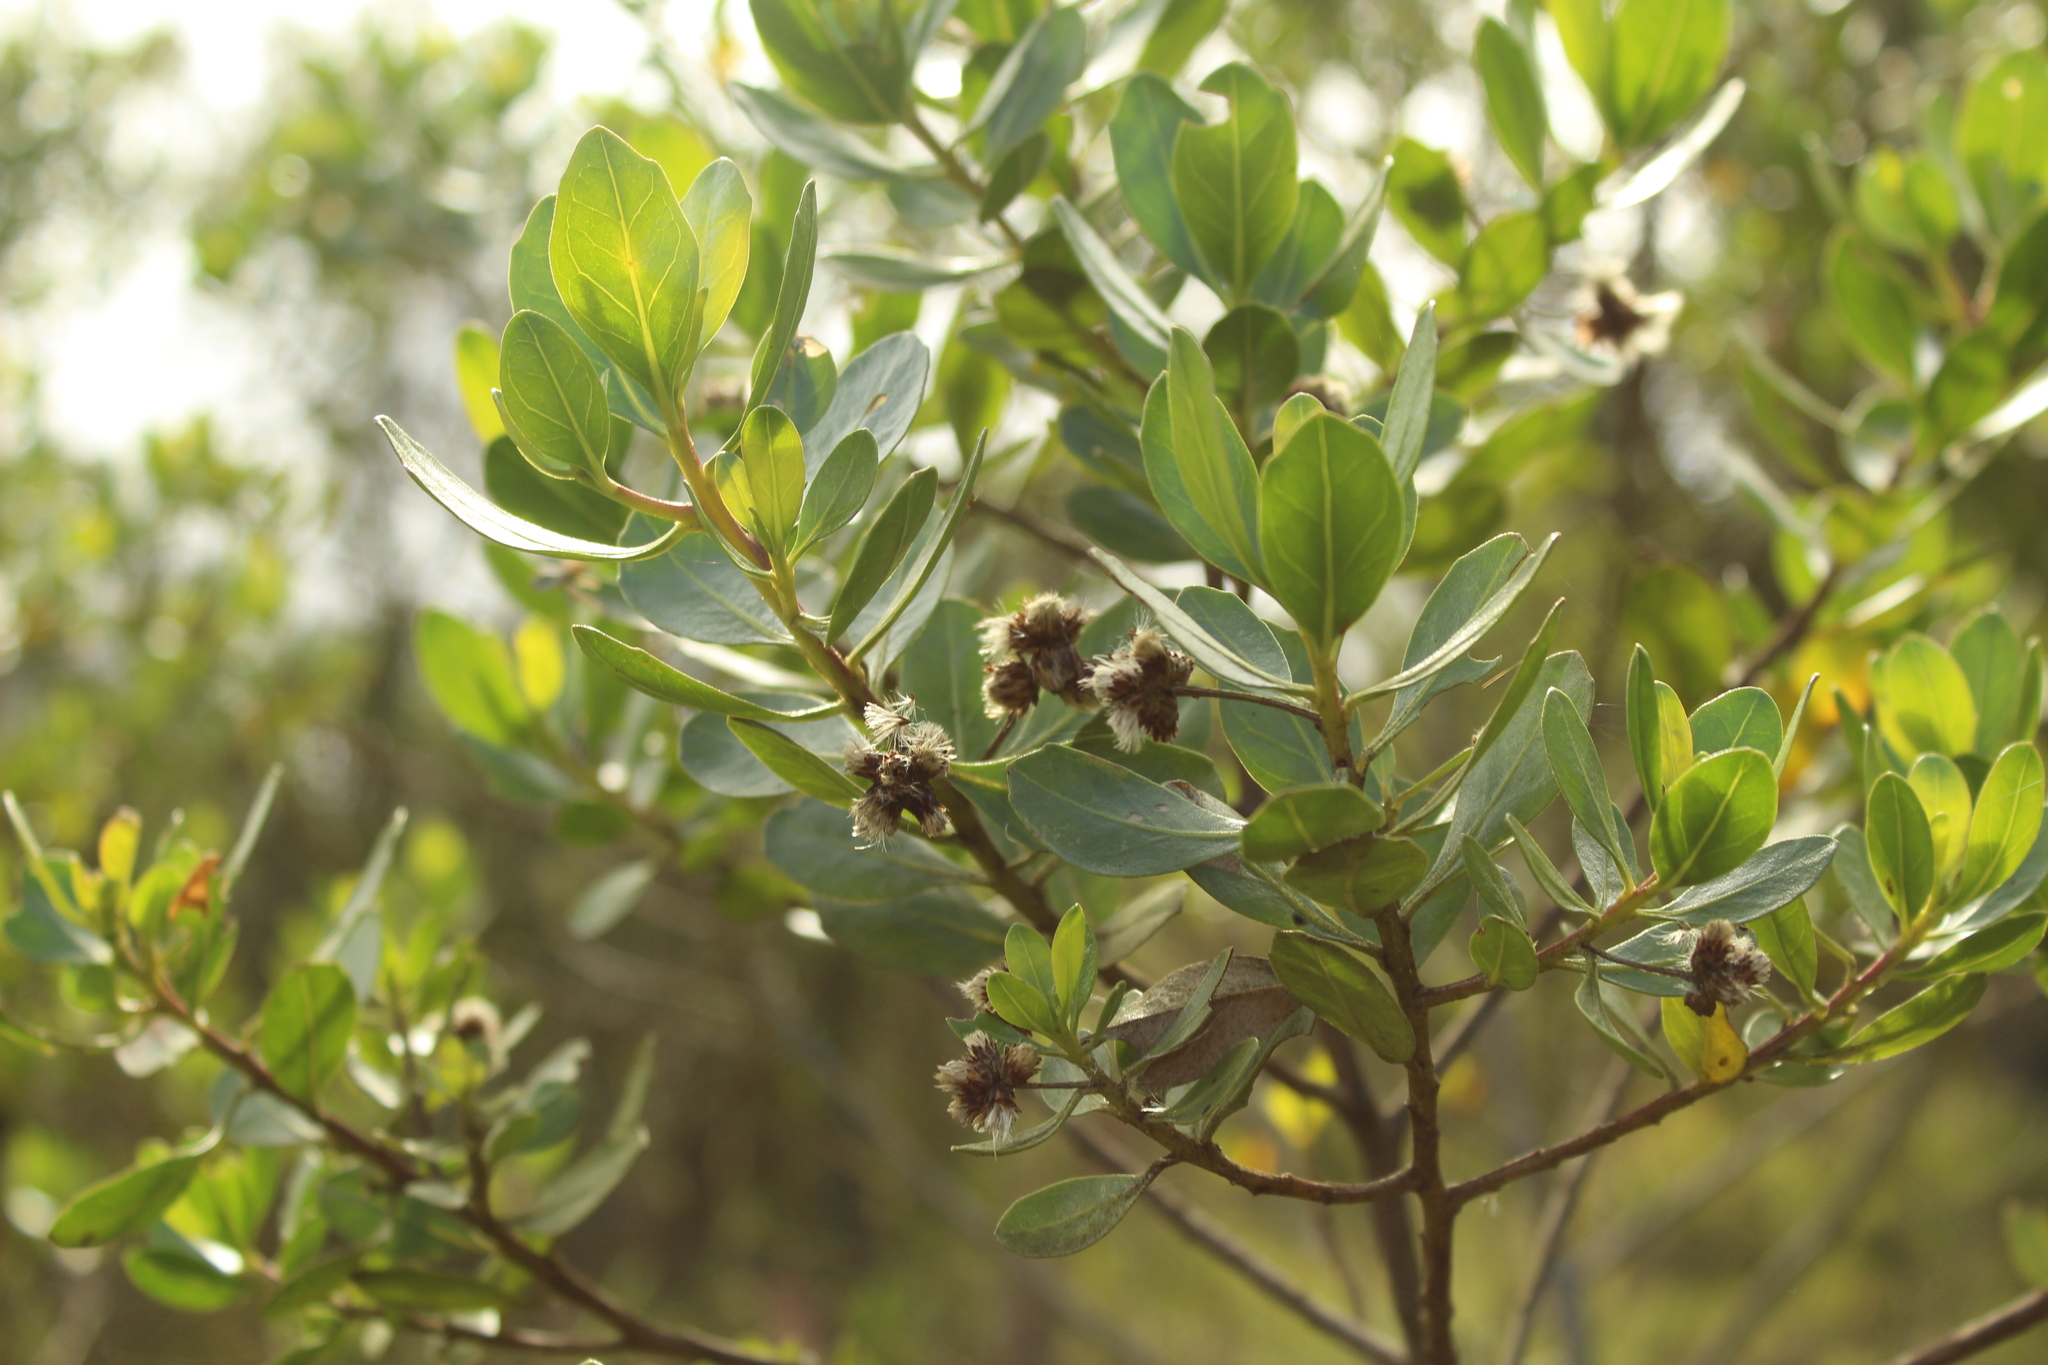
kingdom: Plantae
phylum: Tracheophyta
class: Magnoliopsida
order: Asterales
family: Asteraceae
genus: Baccharis
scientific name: Baccharis macrantha
